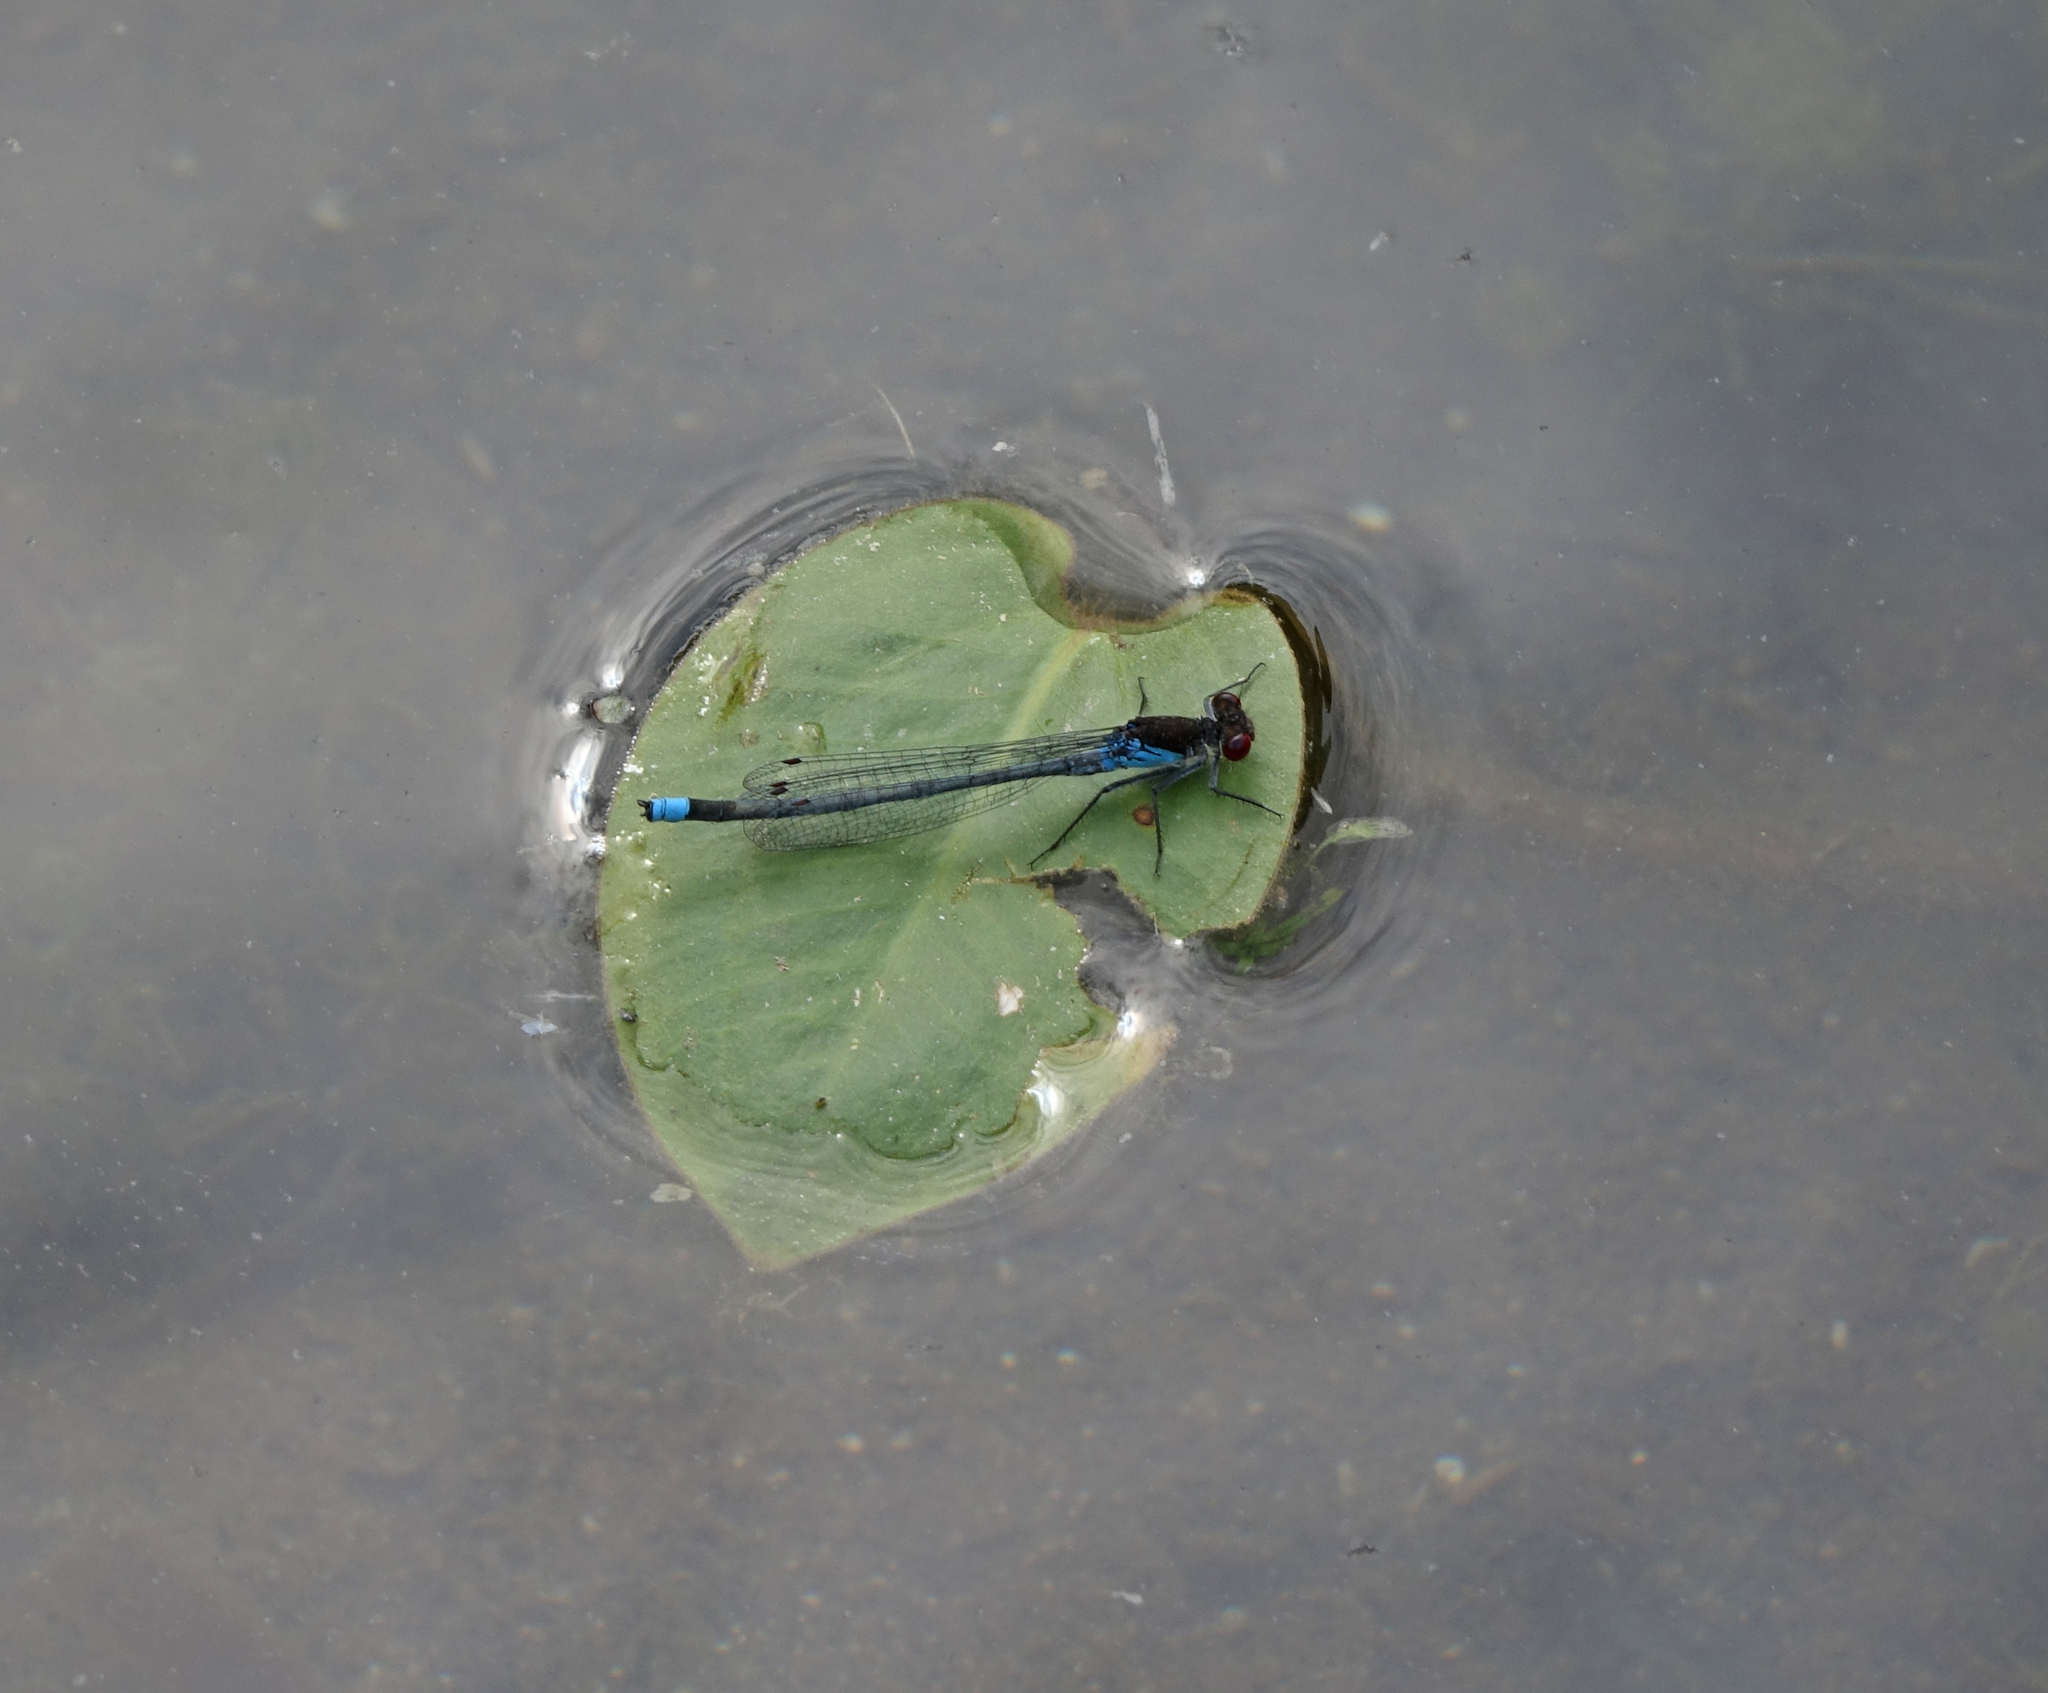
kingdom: Animalia
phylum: Arthropoda
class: Insecta
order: Odonata
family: Coenagrionidae
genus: Erythromma
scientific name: Erythromma najas
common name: Red-eyed damselfly
